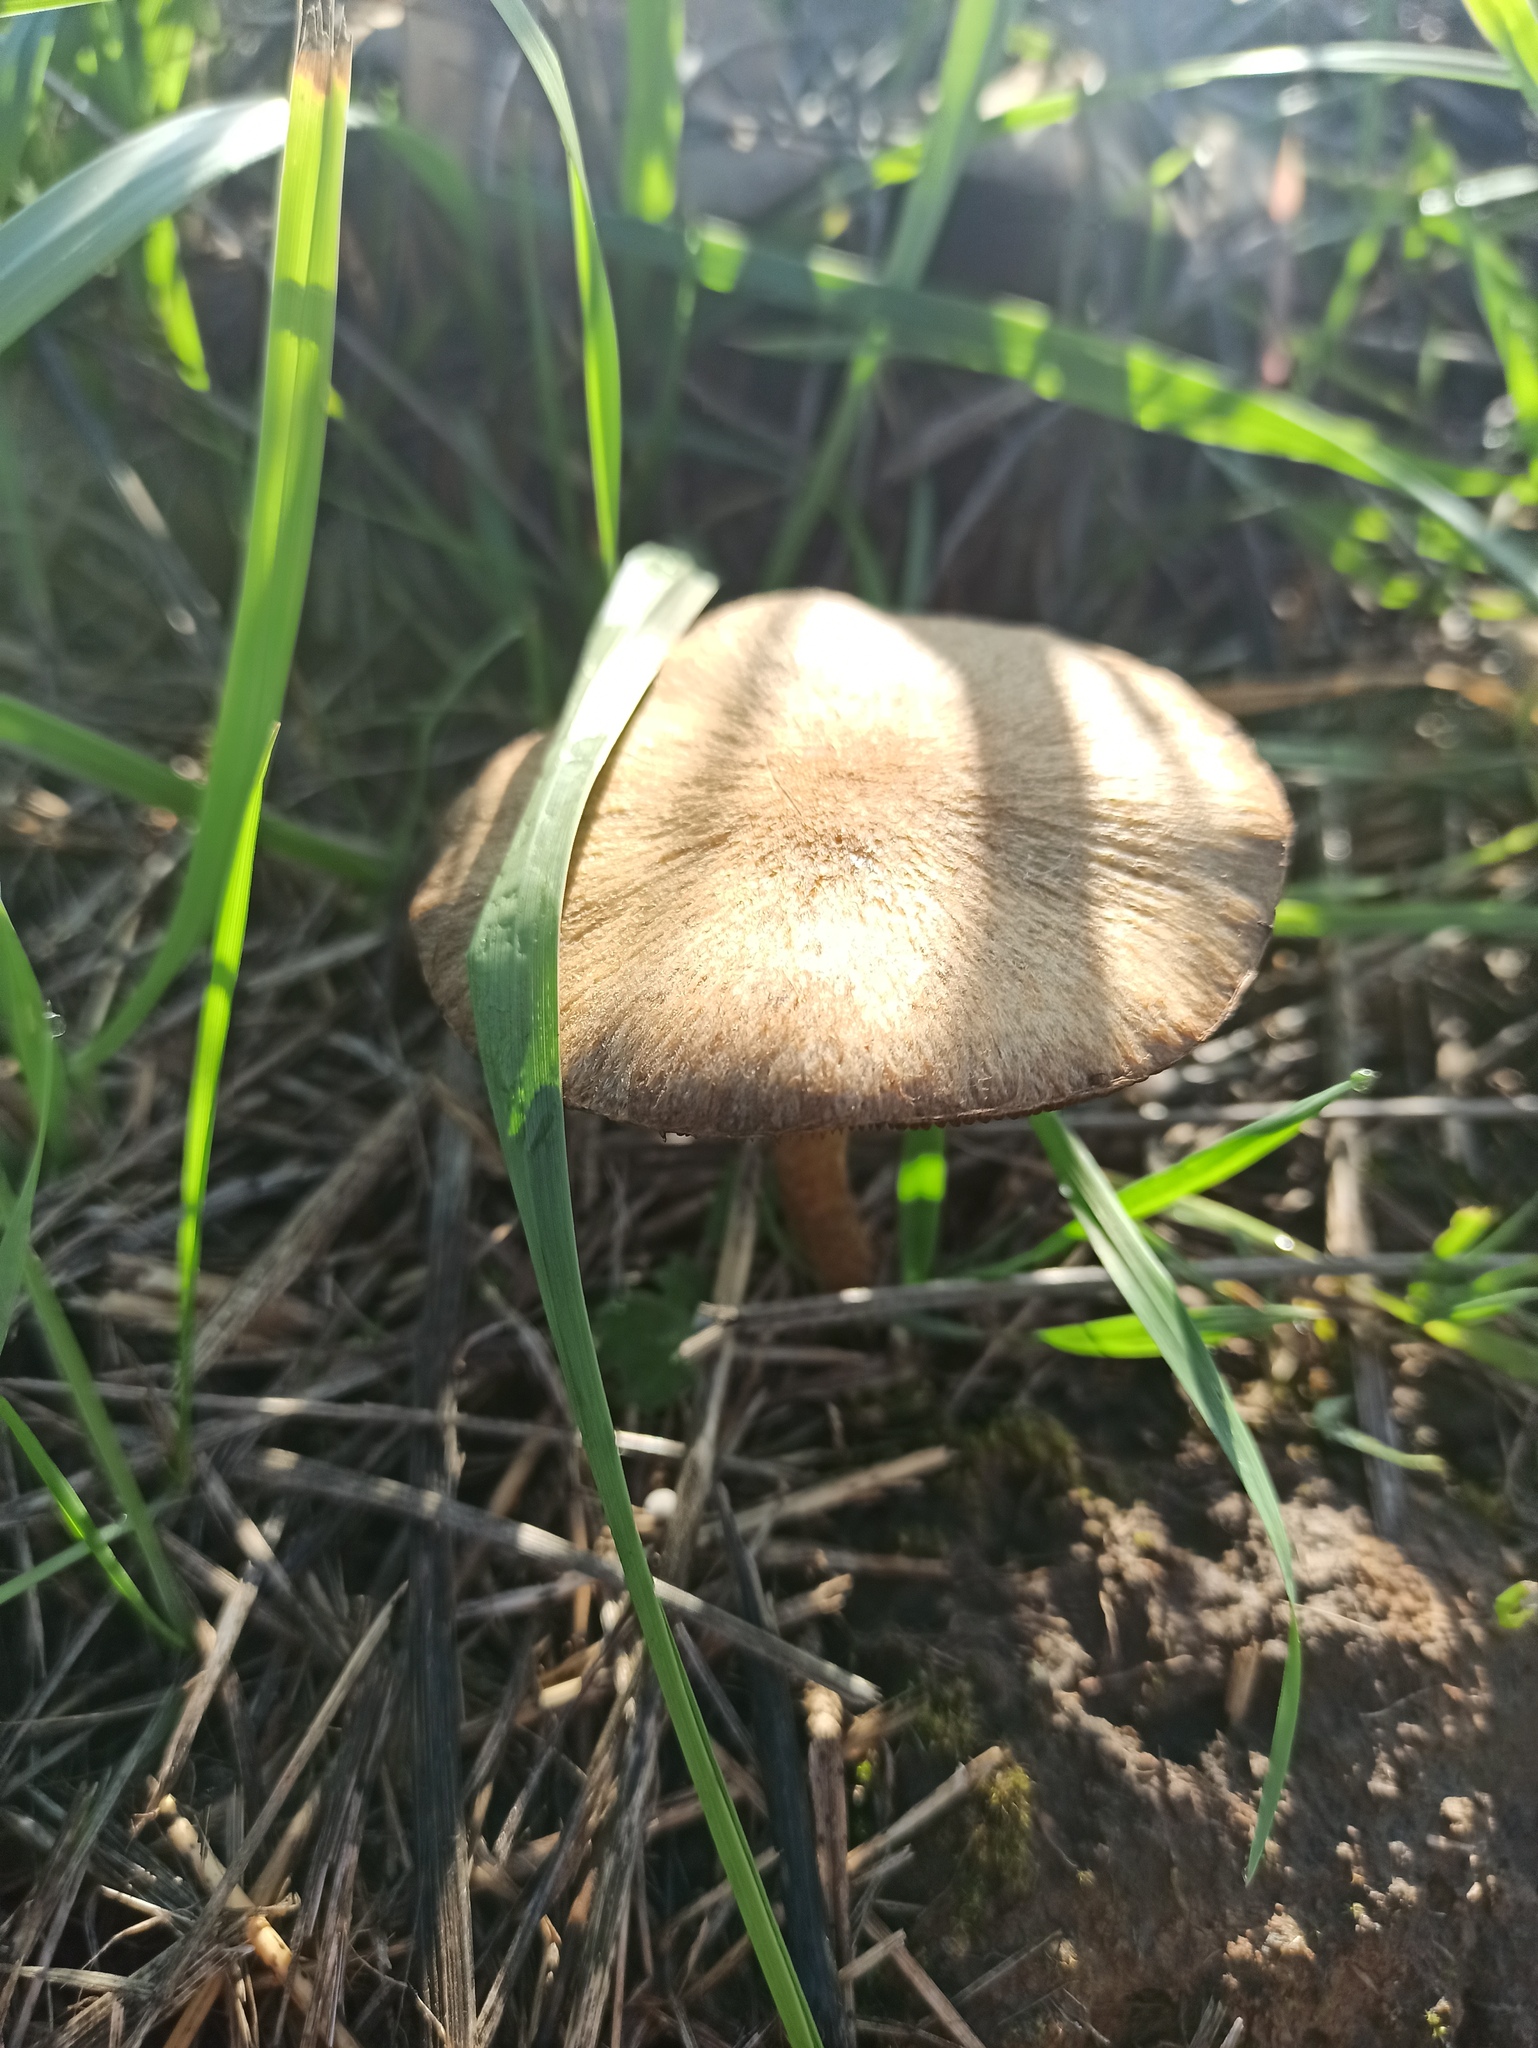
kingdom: Fungi
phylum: Basidiomycota
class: Agaricomycetes
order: Agaricales
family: Psathyrellaceae
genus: Lacrymaria
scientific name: Lacrymaria lacrymabunda
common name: Weeping widow
